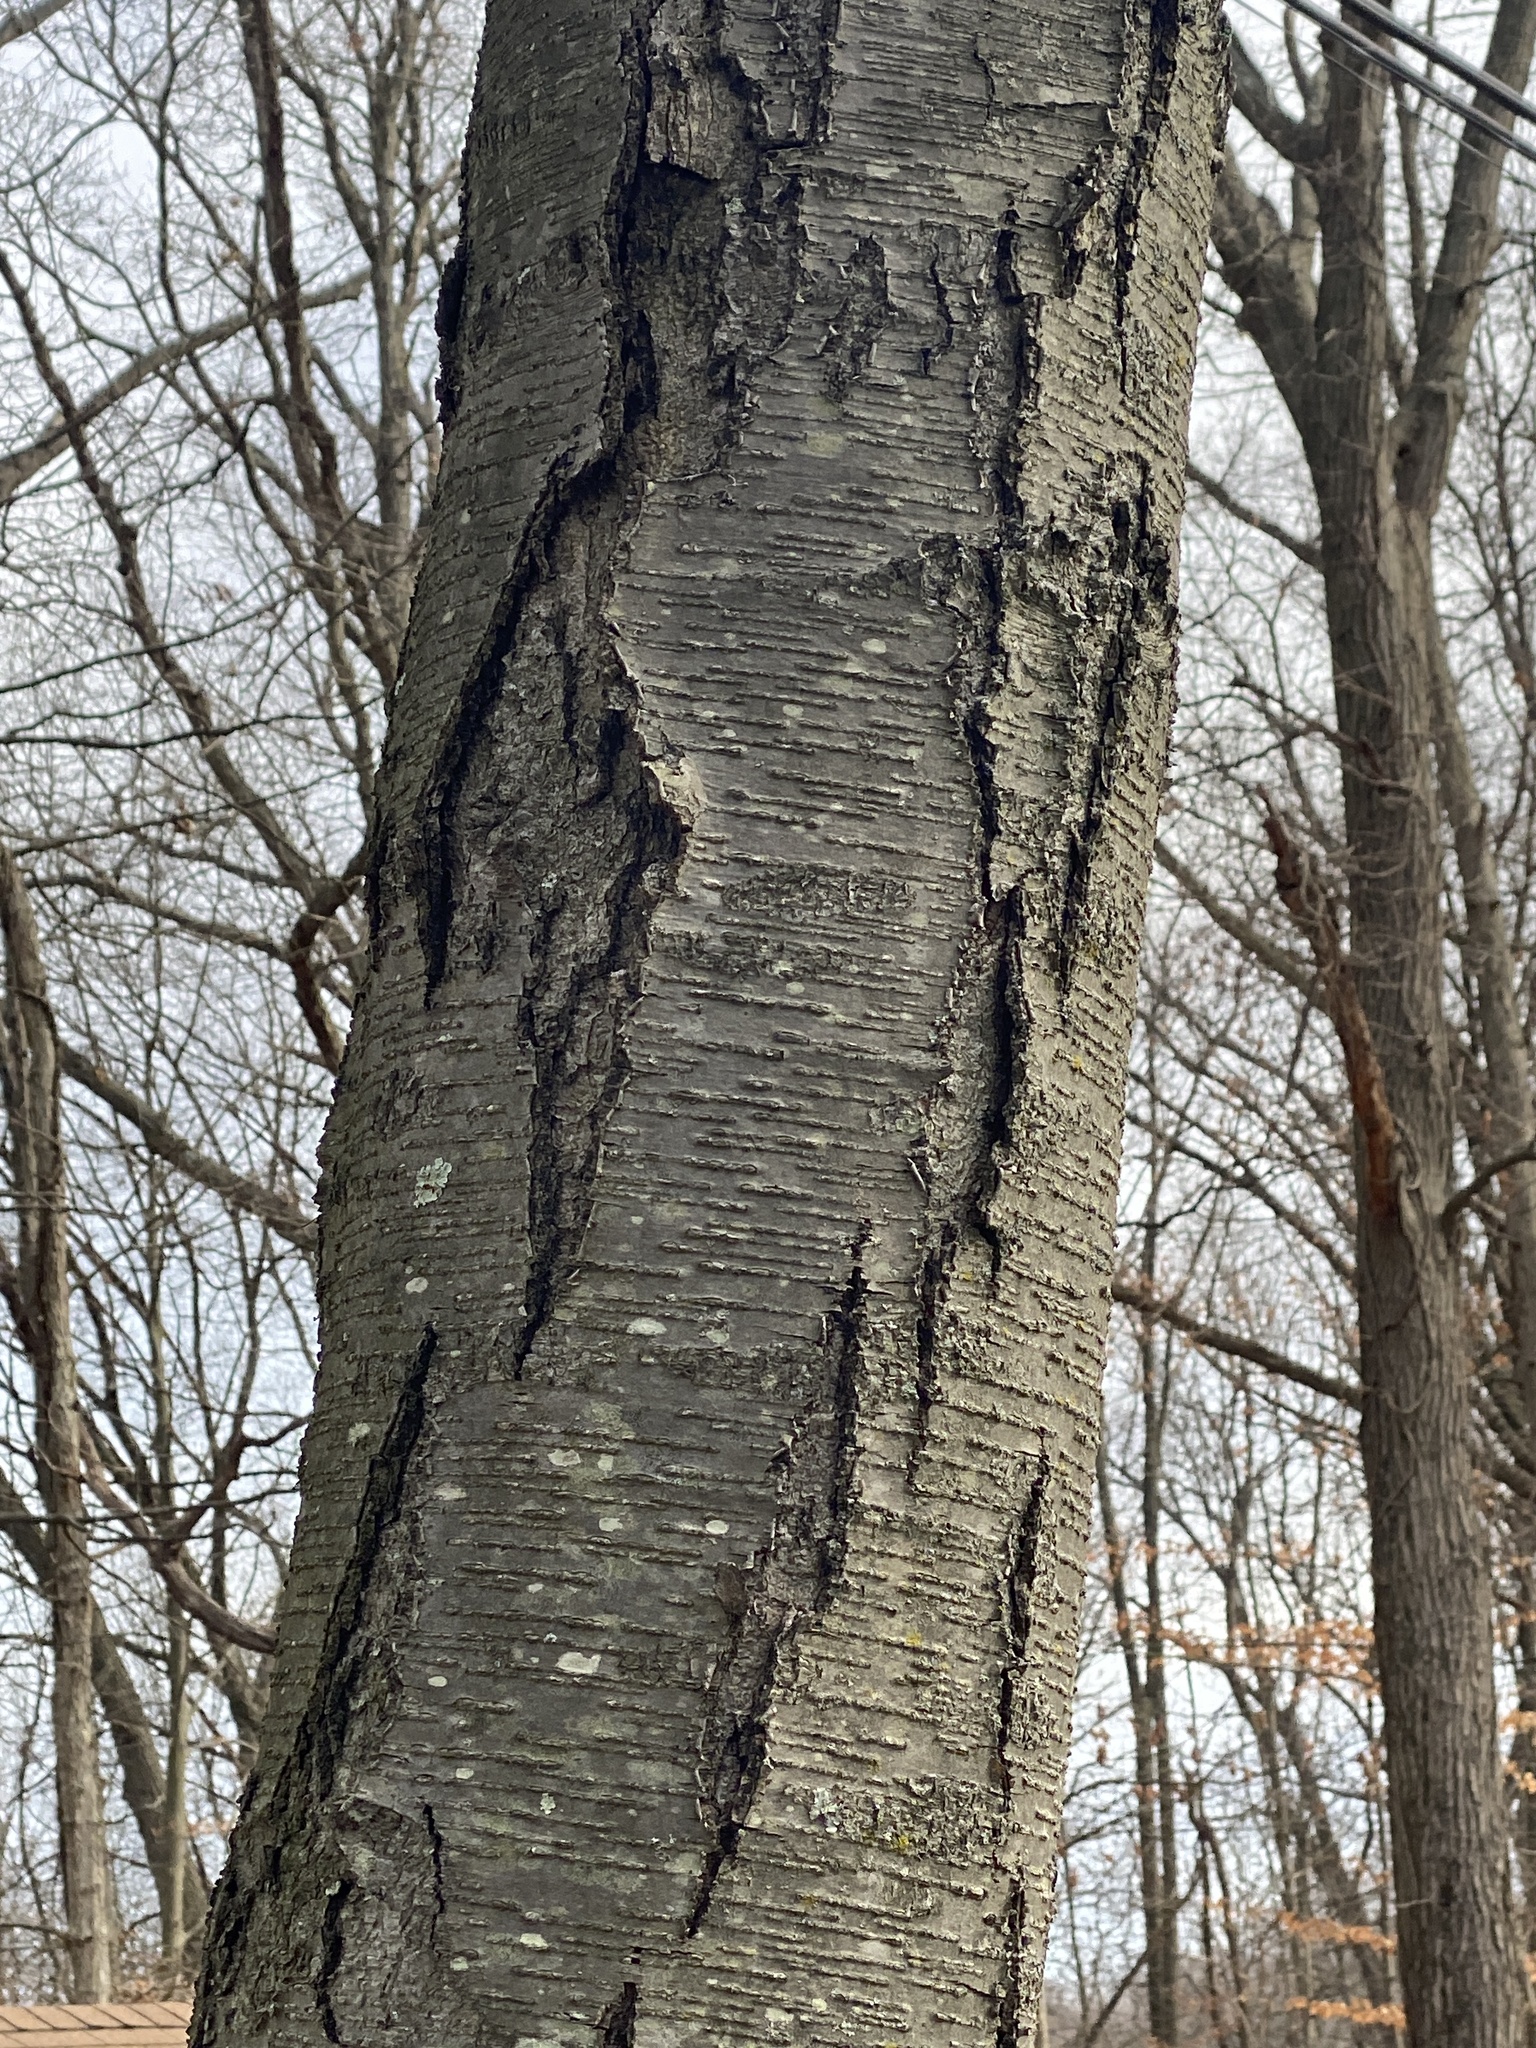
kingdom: Plantae
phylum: Tracheophyta
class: Magnoliopsida
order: Fagales
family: Betulaceae
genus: Betula
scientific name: Betula lenta
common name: Black birch
